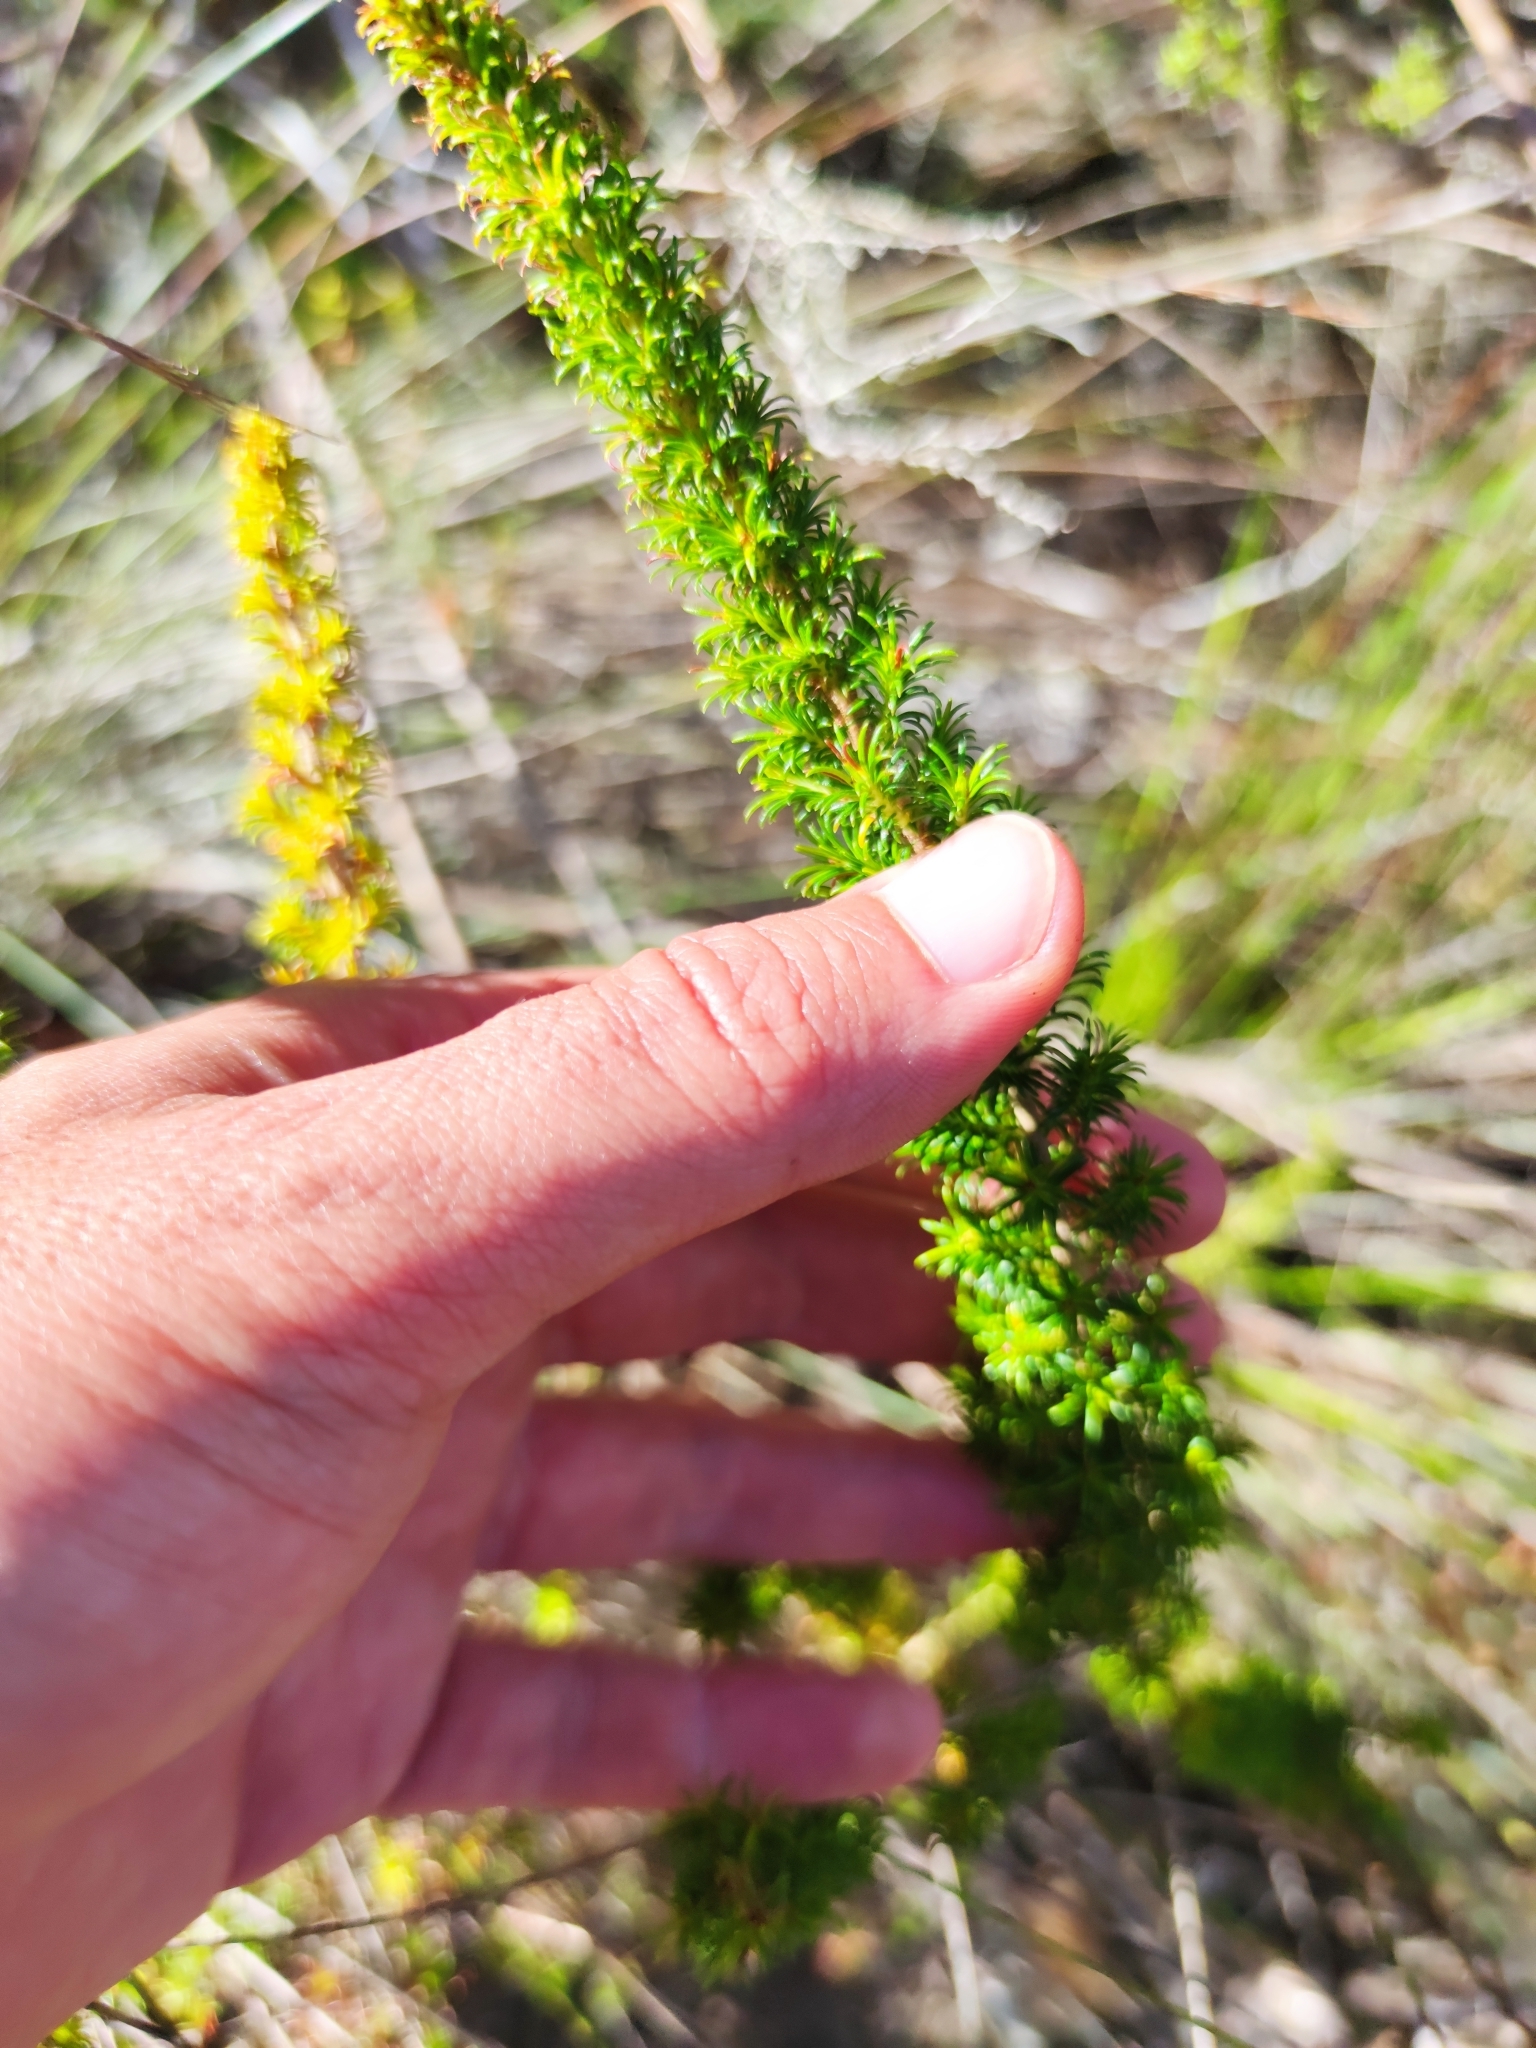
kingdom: Plantae
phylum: Tracheophyta
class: Magnoliopsida
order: Ericales
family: Ericaceae
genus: Erica
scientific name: Erica coccinea
